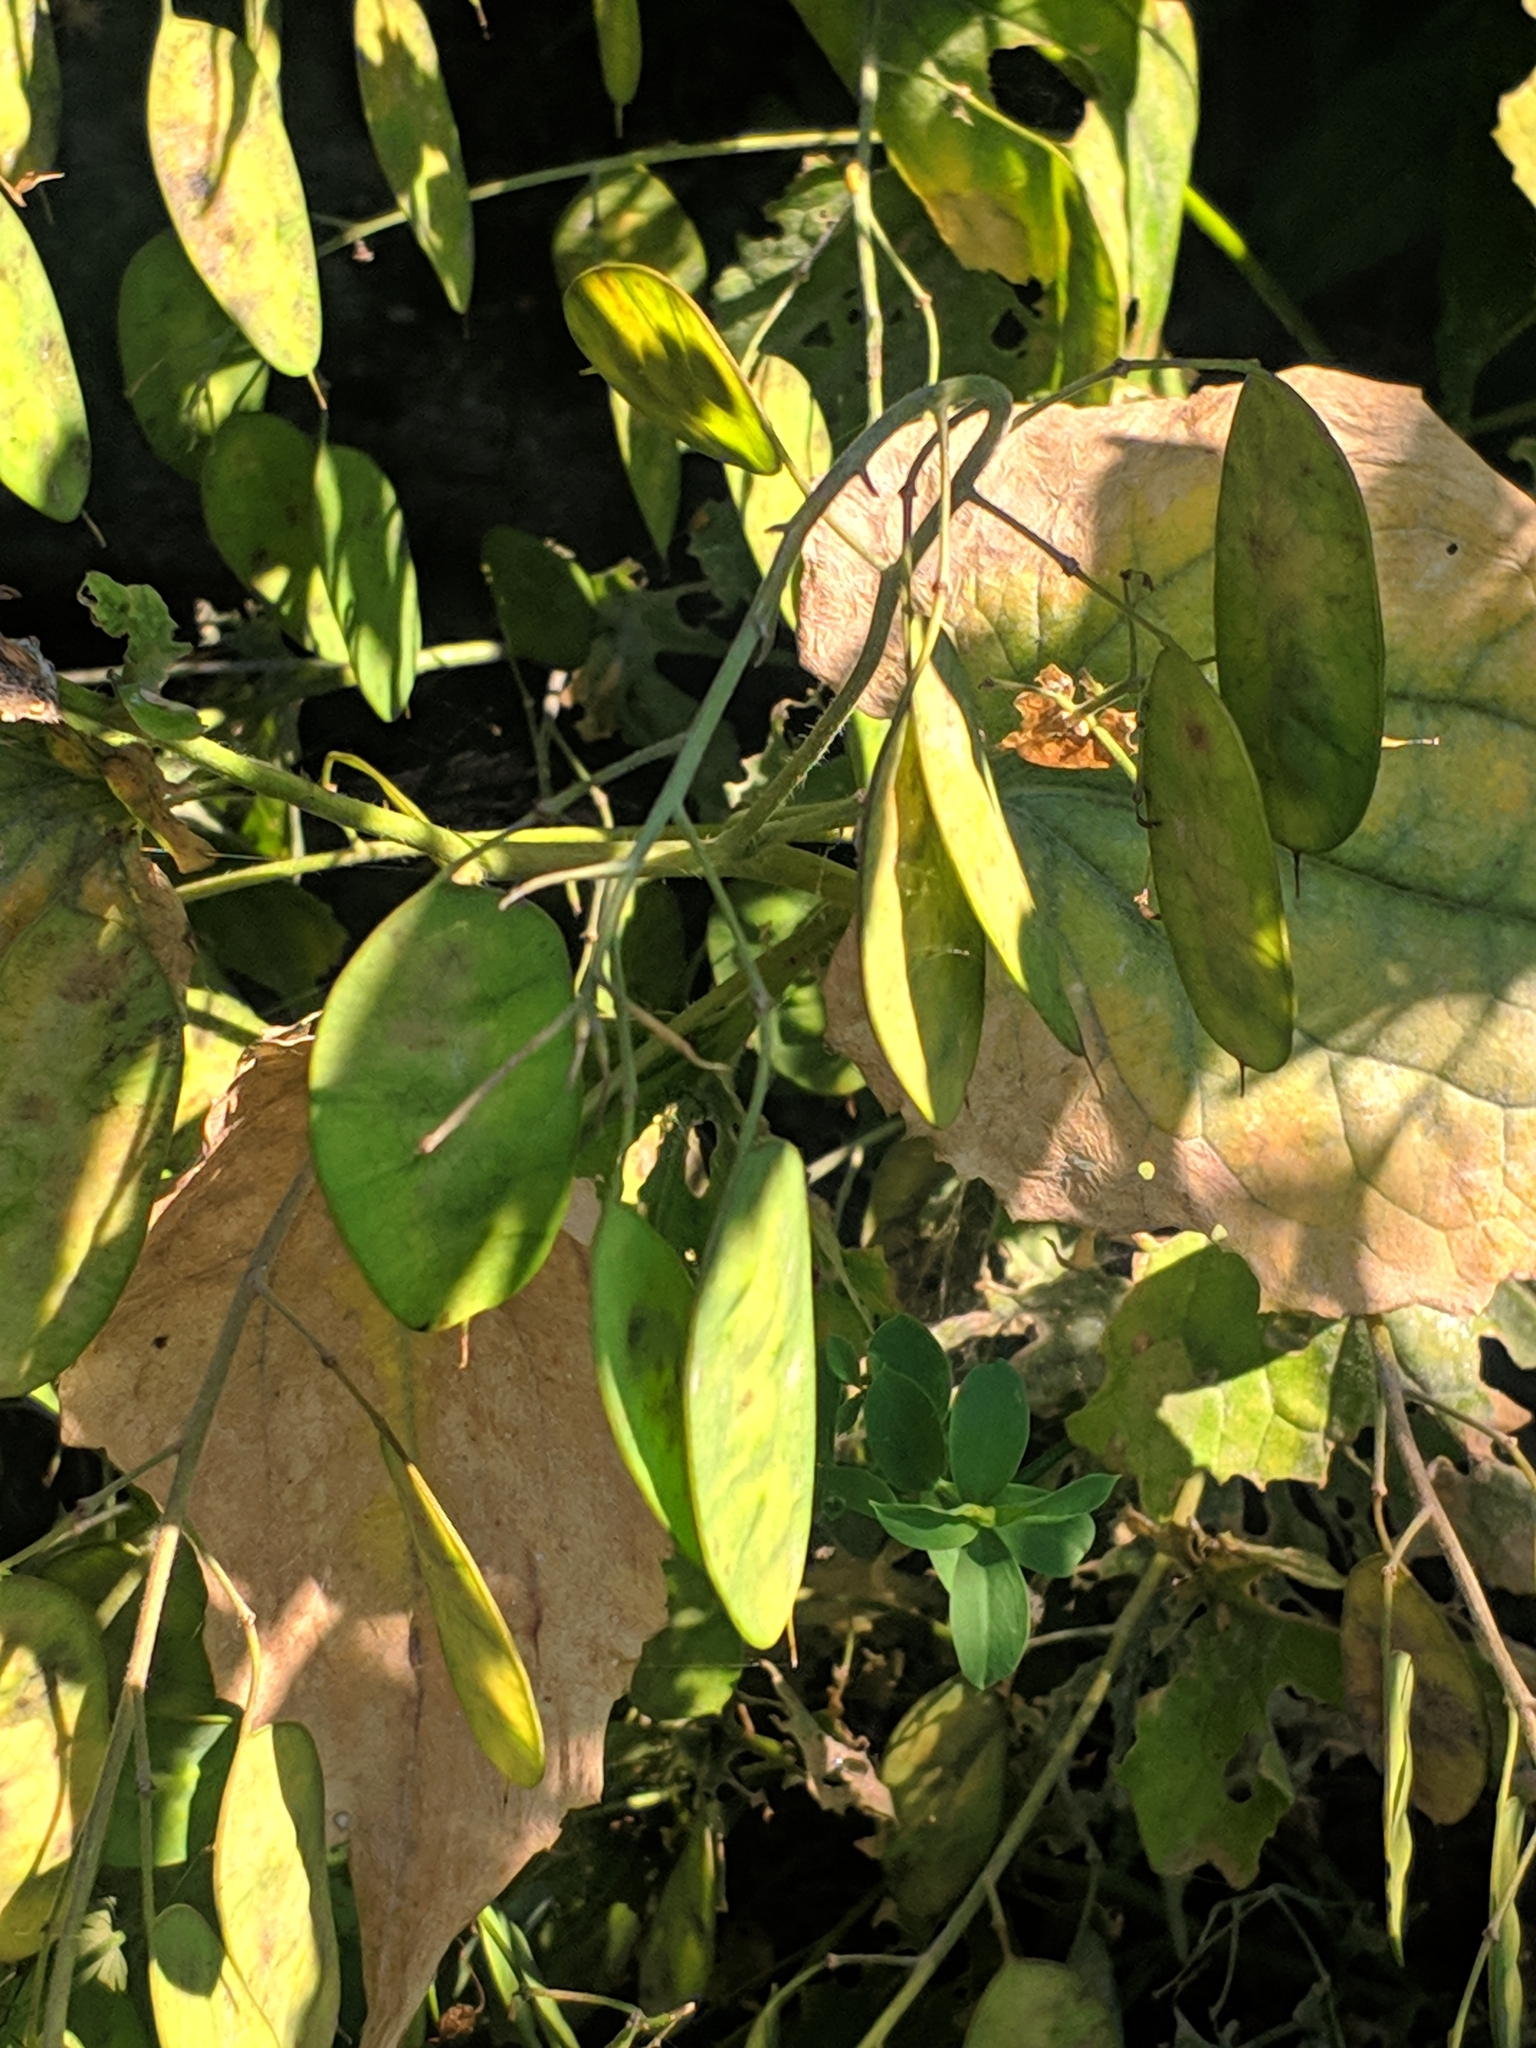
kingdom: Plantae
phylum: Tracheophyta
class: Magnoliopsida
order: Brassicales
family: Brassicaceae
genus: Lunaria
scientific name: Lunaria annua
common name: Honesty
